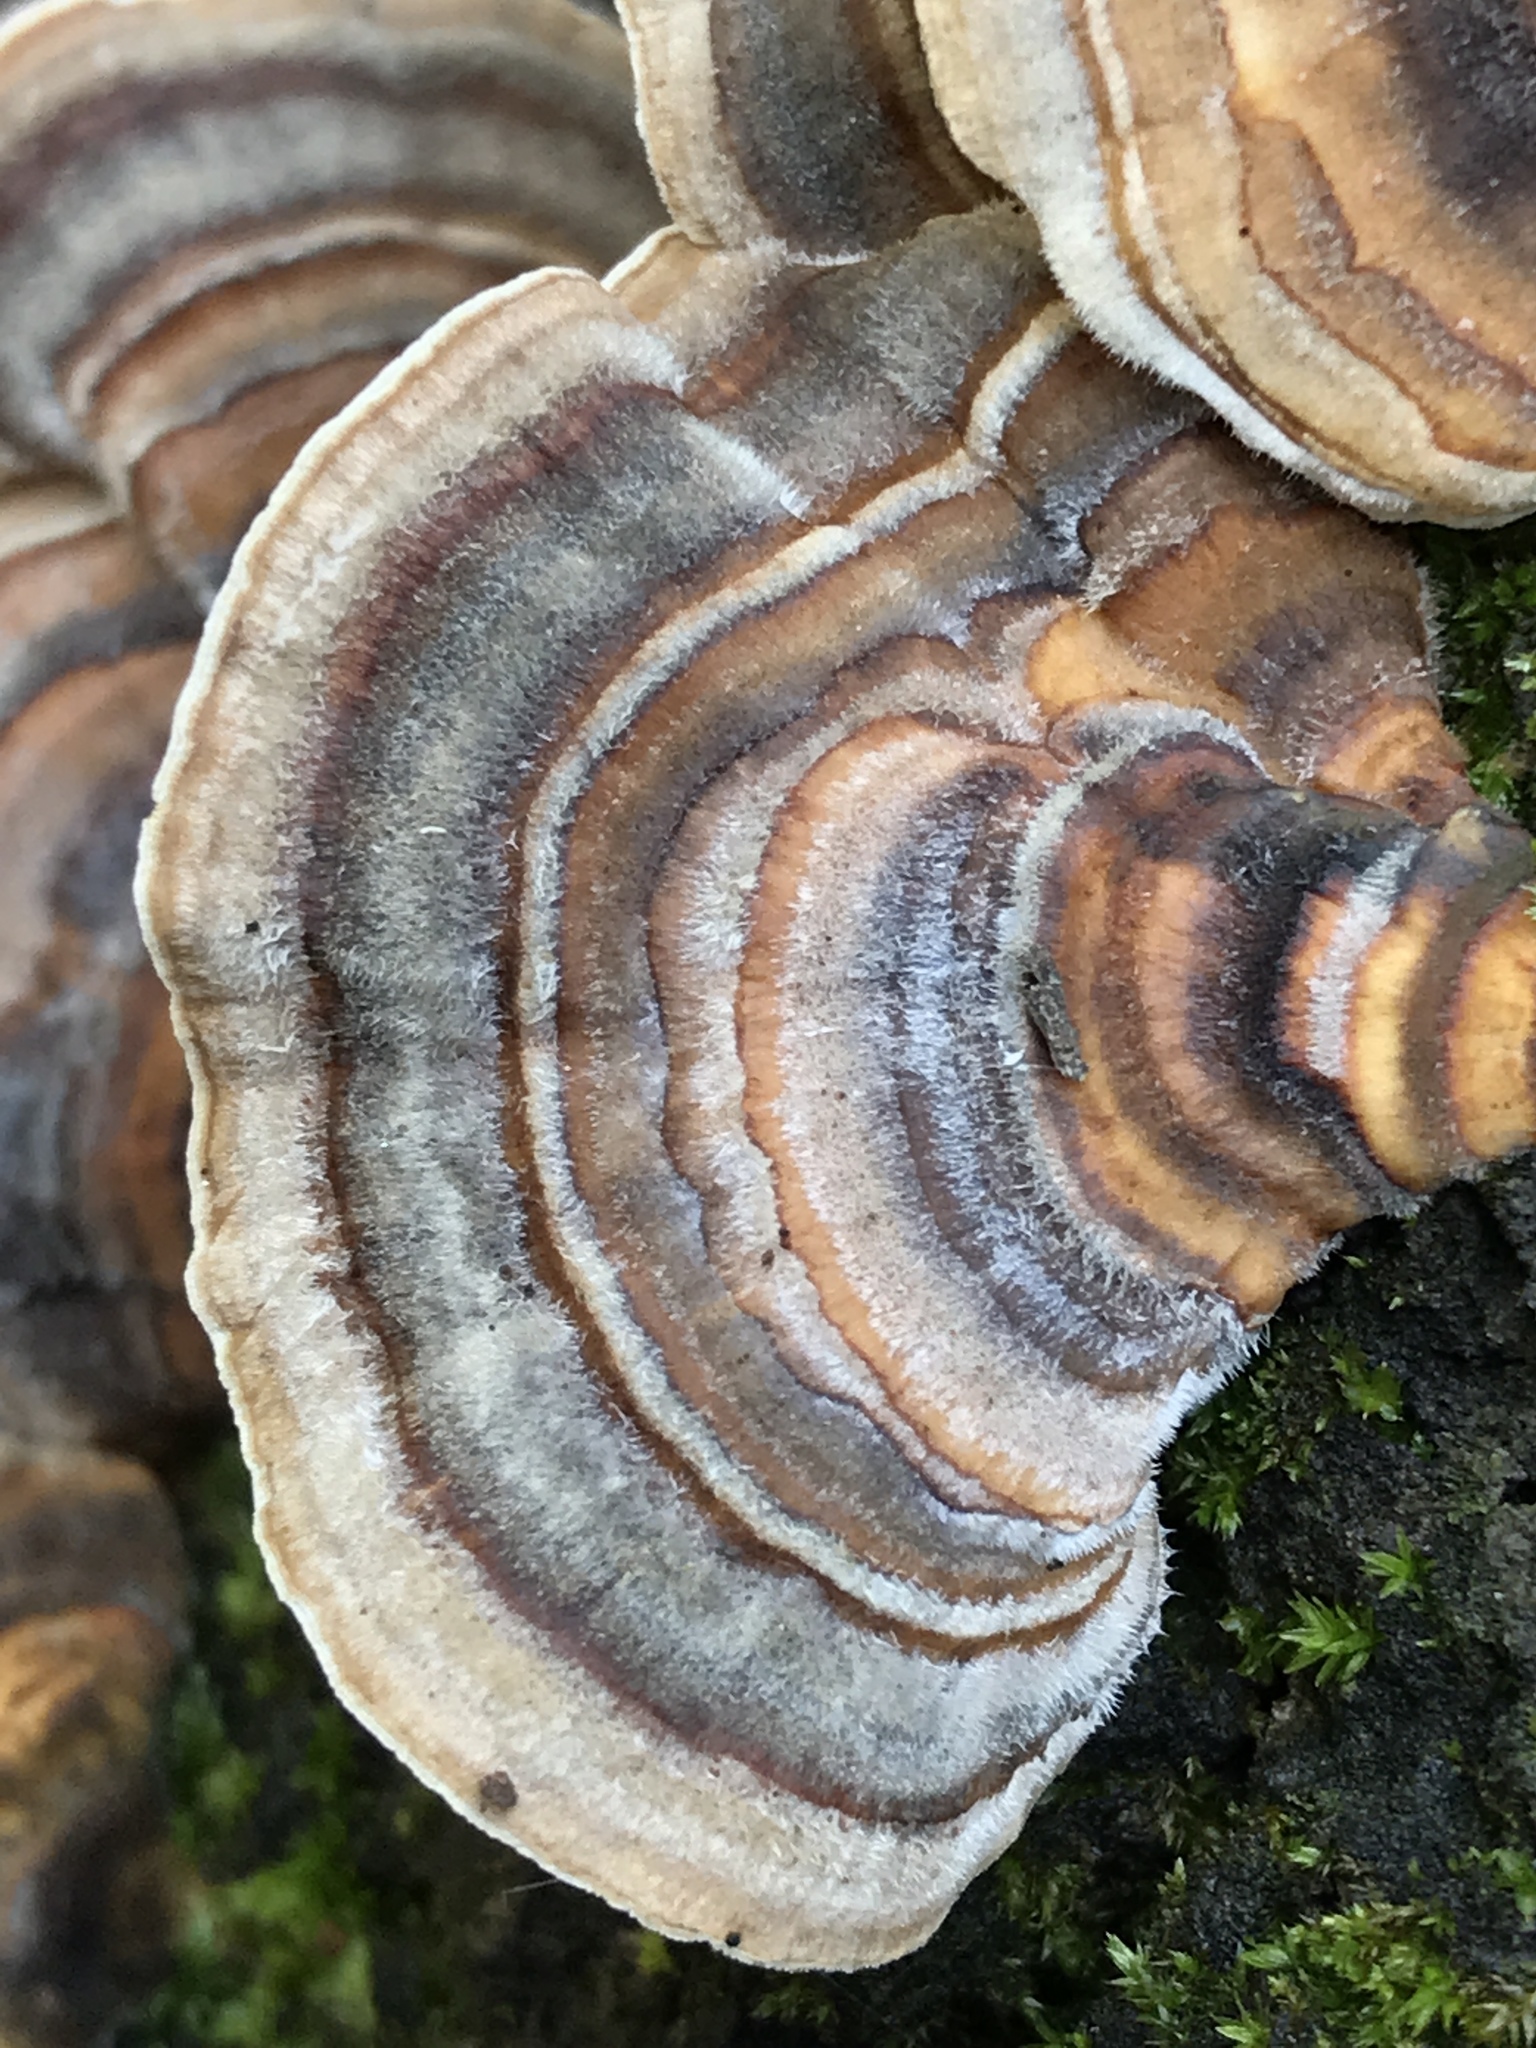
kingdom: Fungi
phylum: Basidiomycota
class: Agaricomycetes
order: Polyporales
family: Polyporaceae
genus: Trametes
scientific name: Trametes versicolor
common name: Turkeytail
